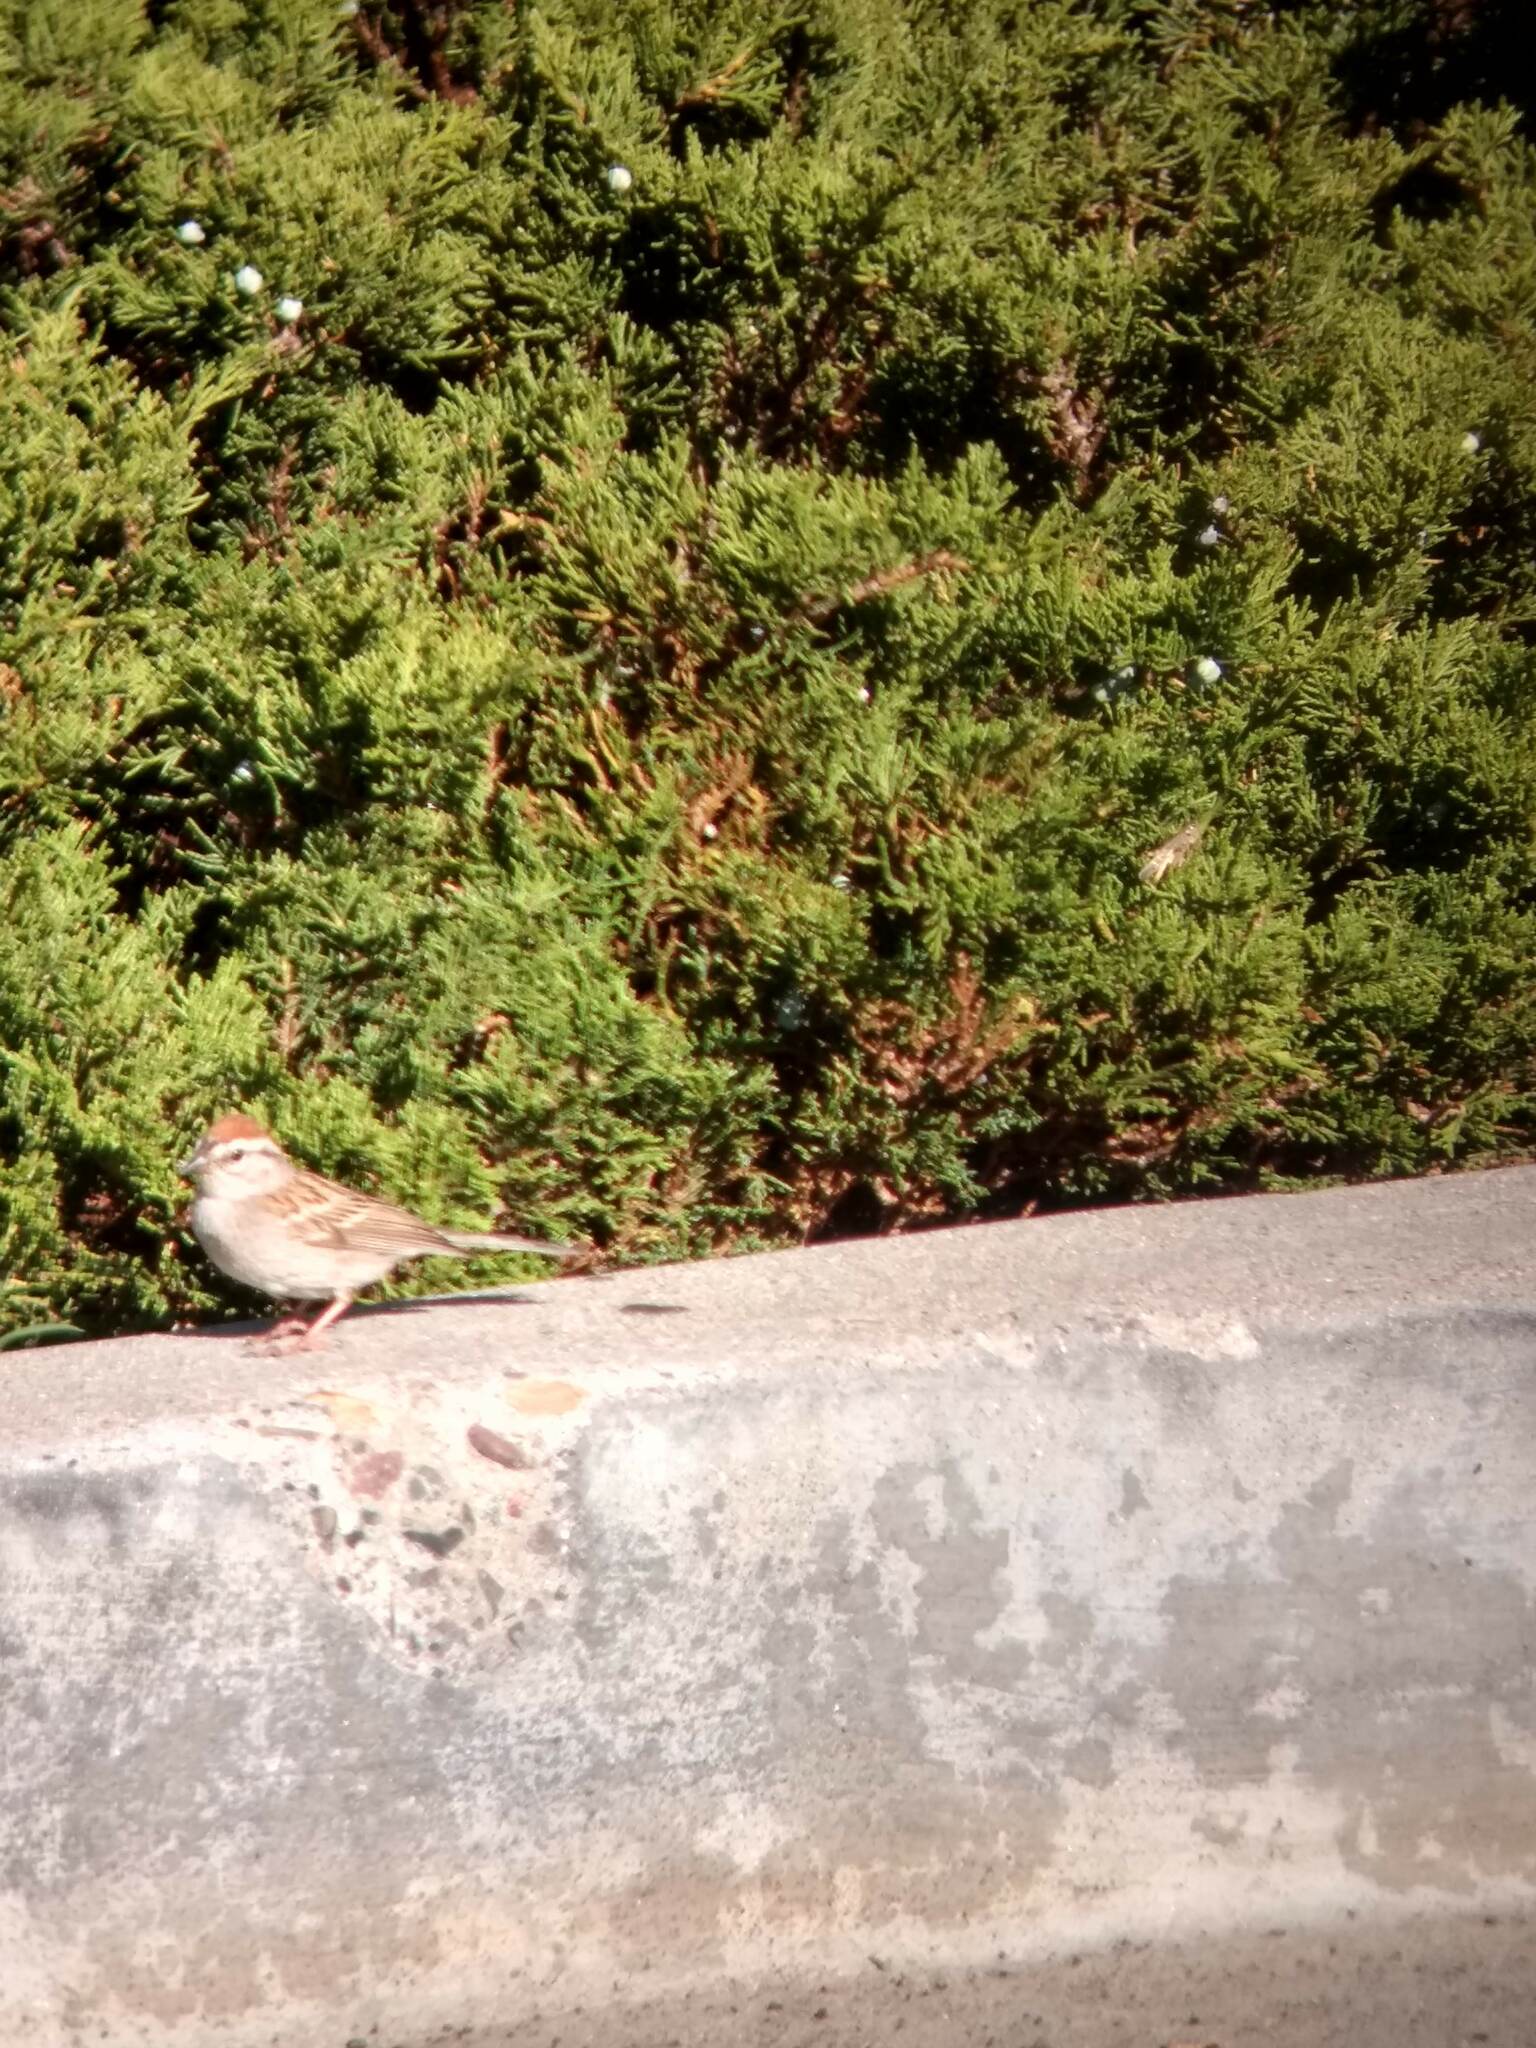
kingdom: Animalia
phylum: Chordata
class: Aves
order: Passeriformes
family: Passerellidae
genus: Spizella
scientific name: Spizella passerina
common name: Chipping sparrow
